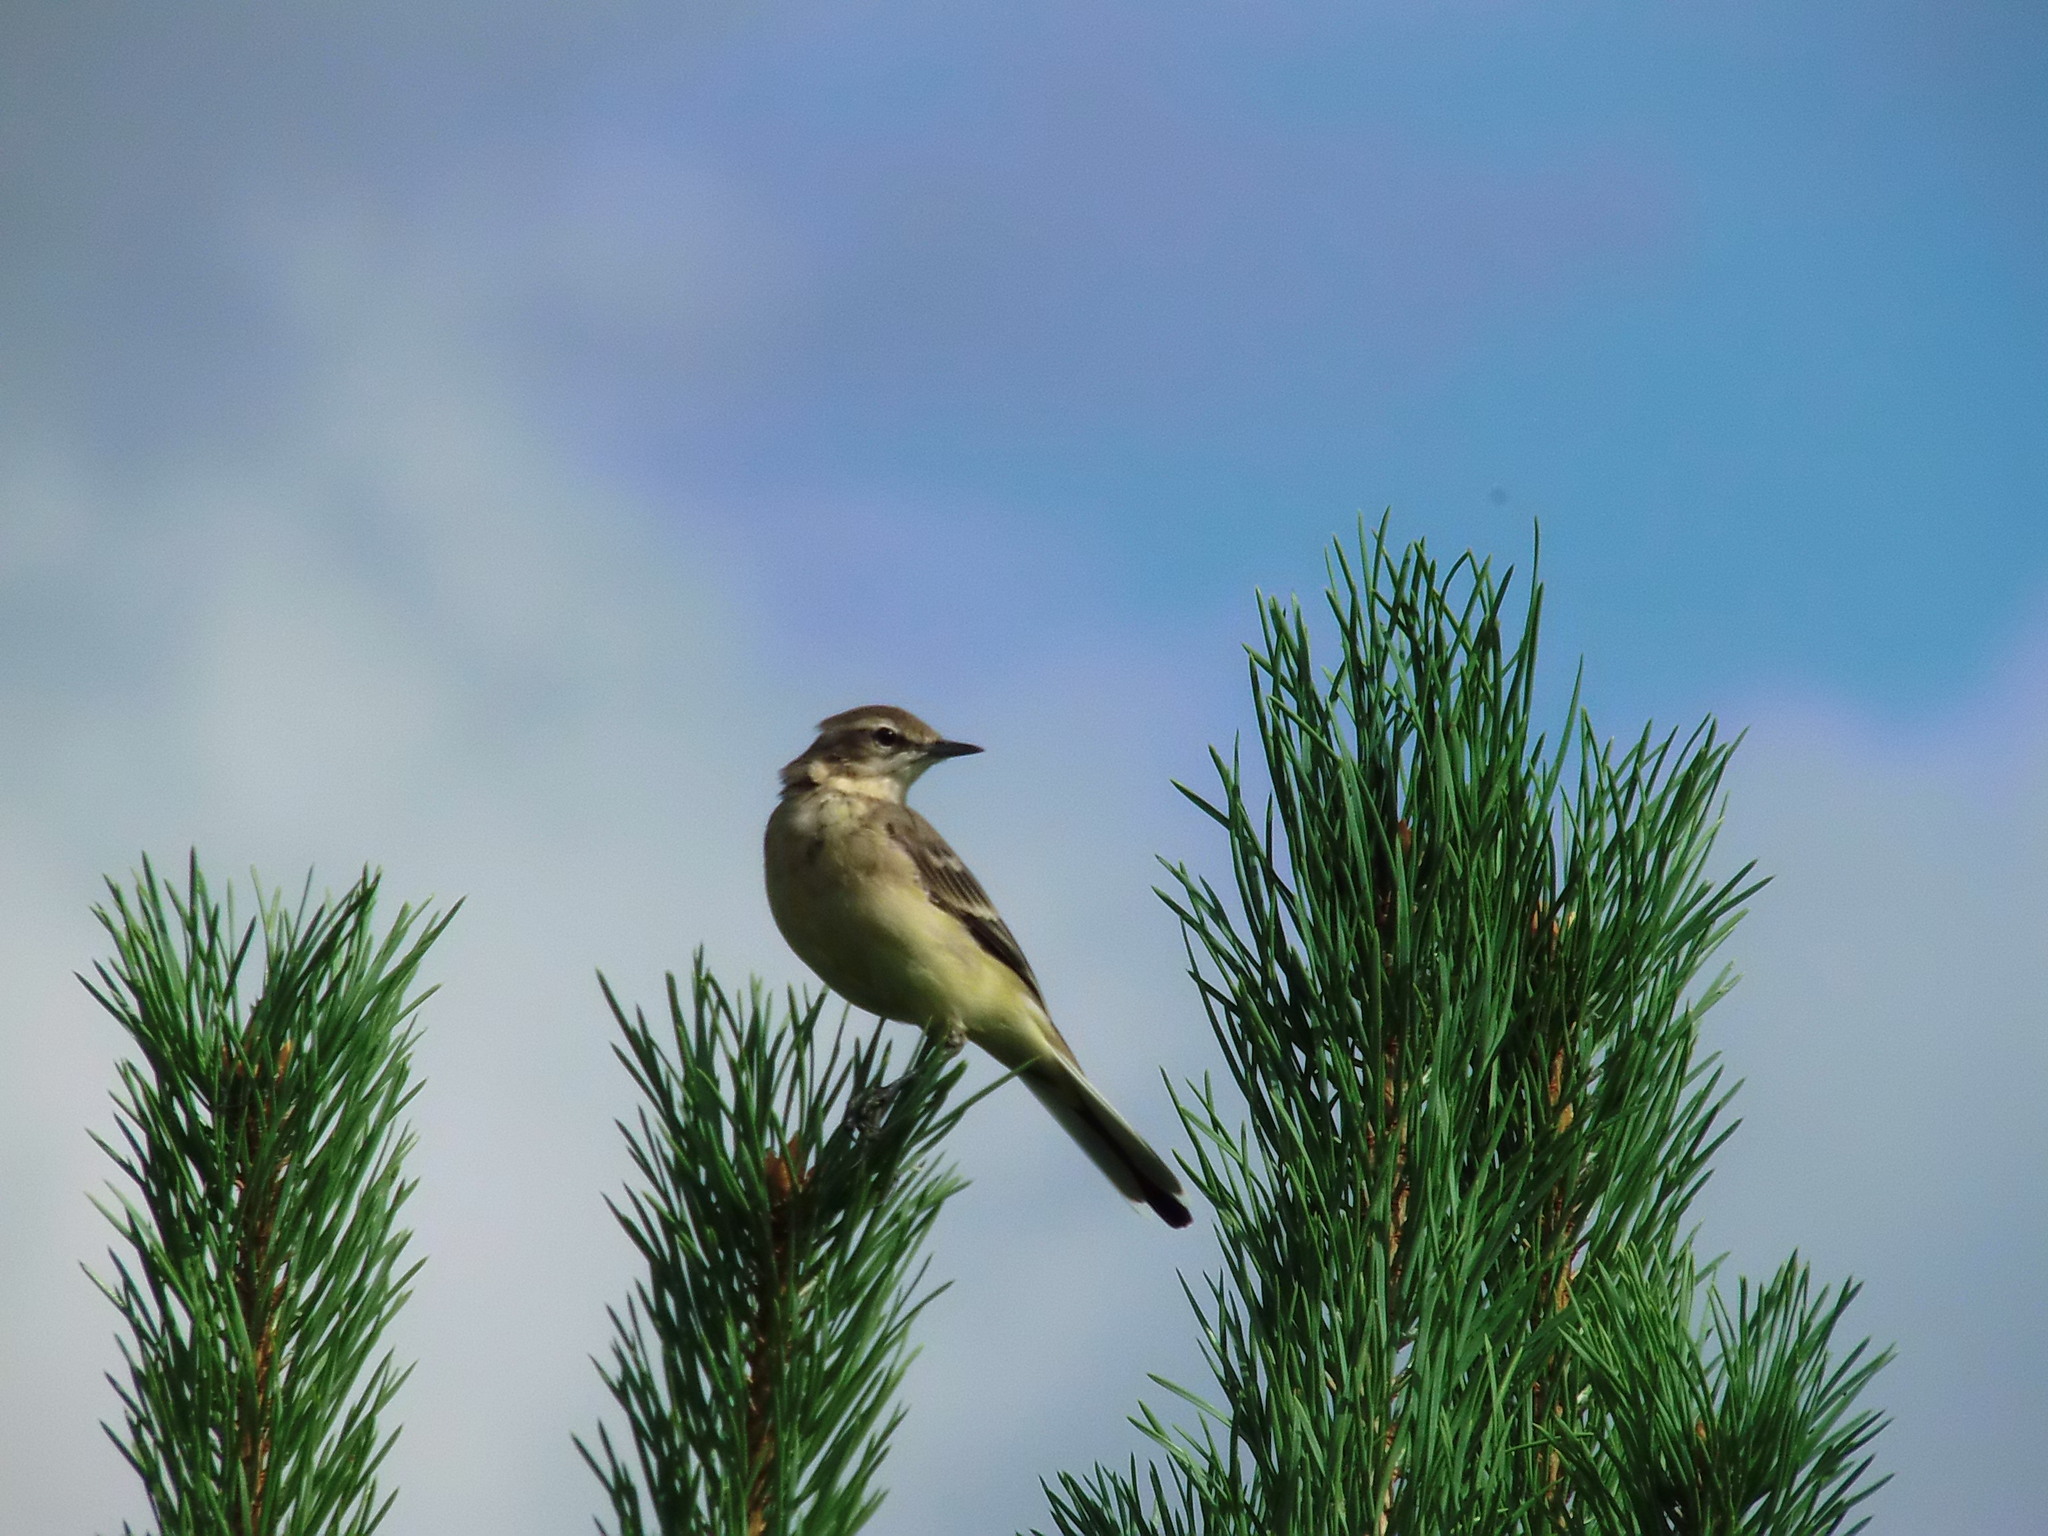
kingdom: Animalia
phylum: Chordata
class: Aves
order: Passeriformes
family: Motacillidae
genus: Motacilla
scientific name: Motacilla flava
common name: Western yellow wagtail
